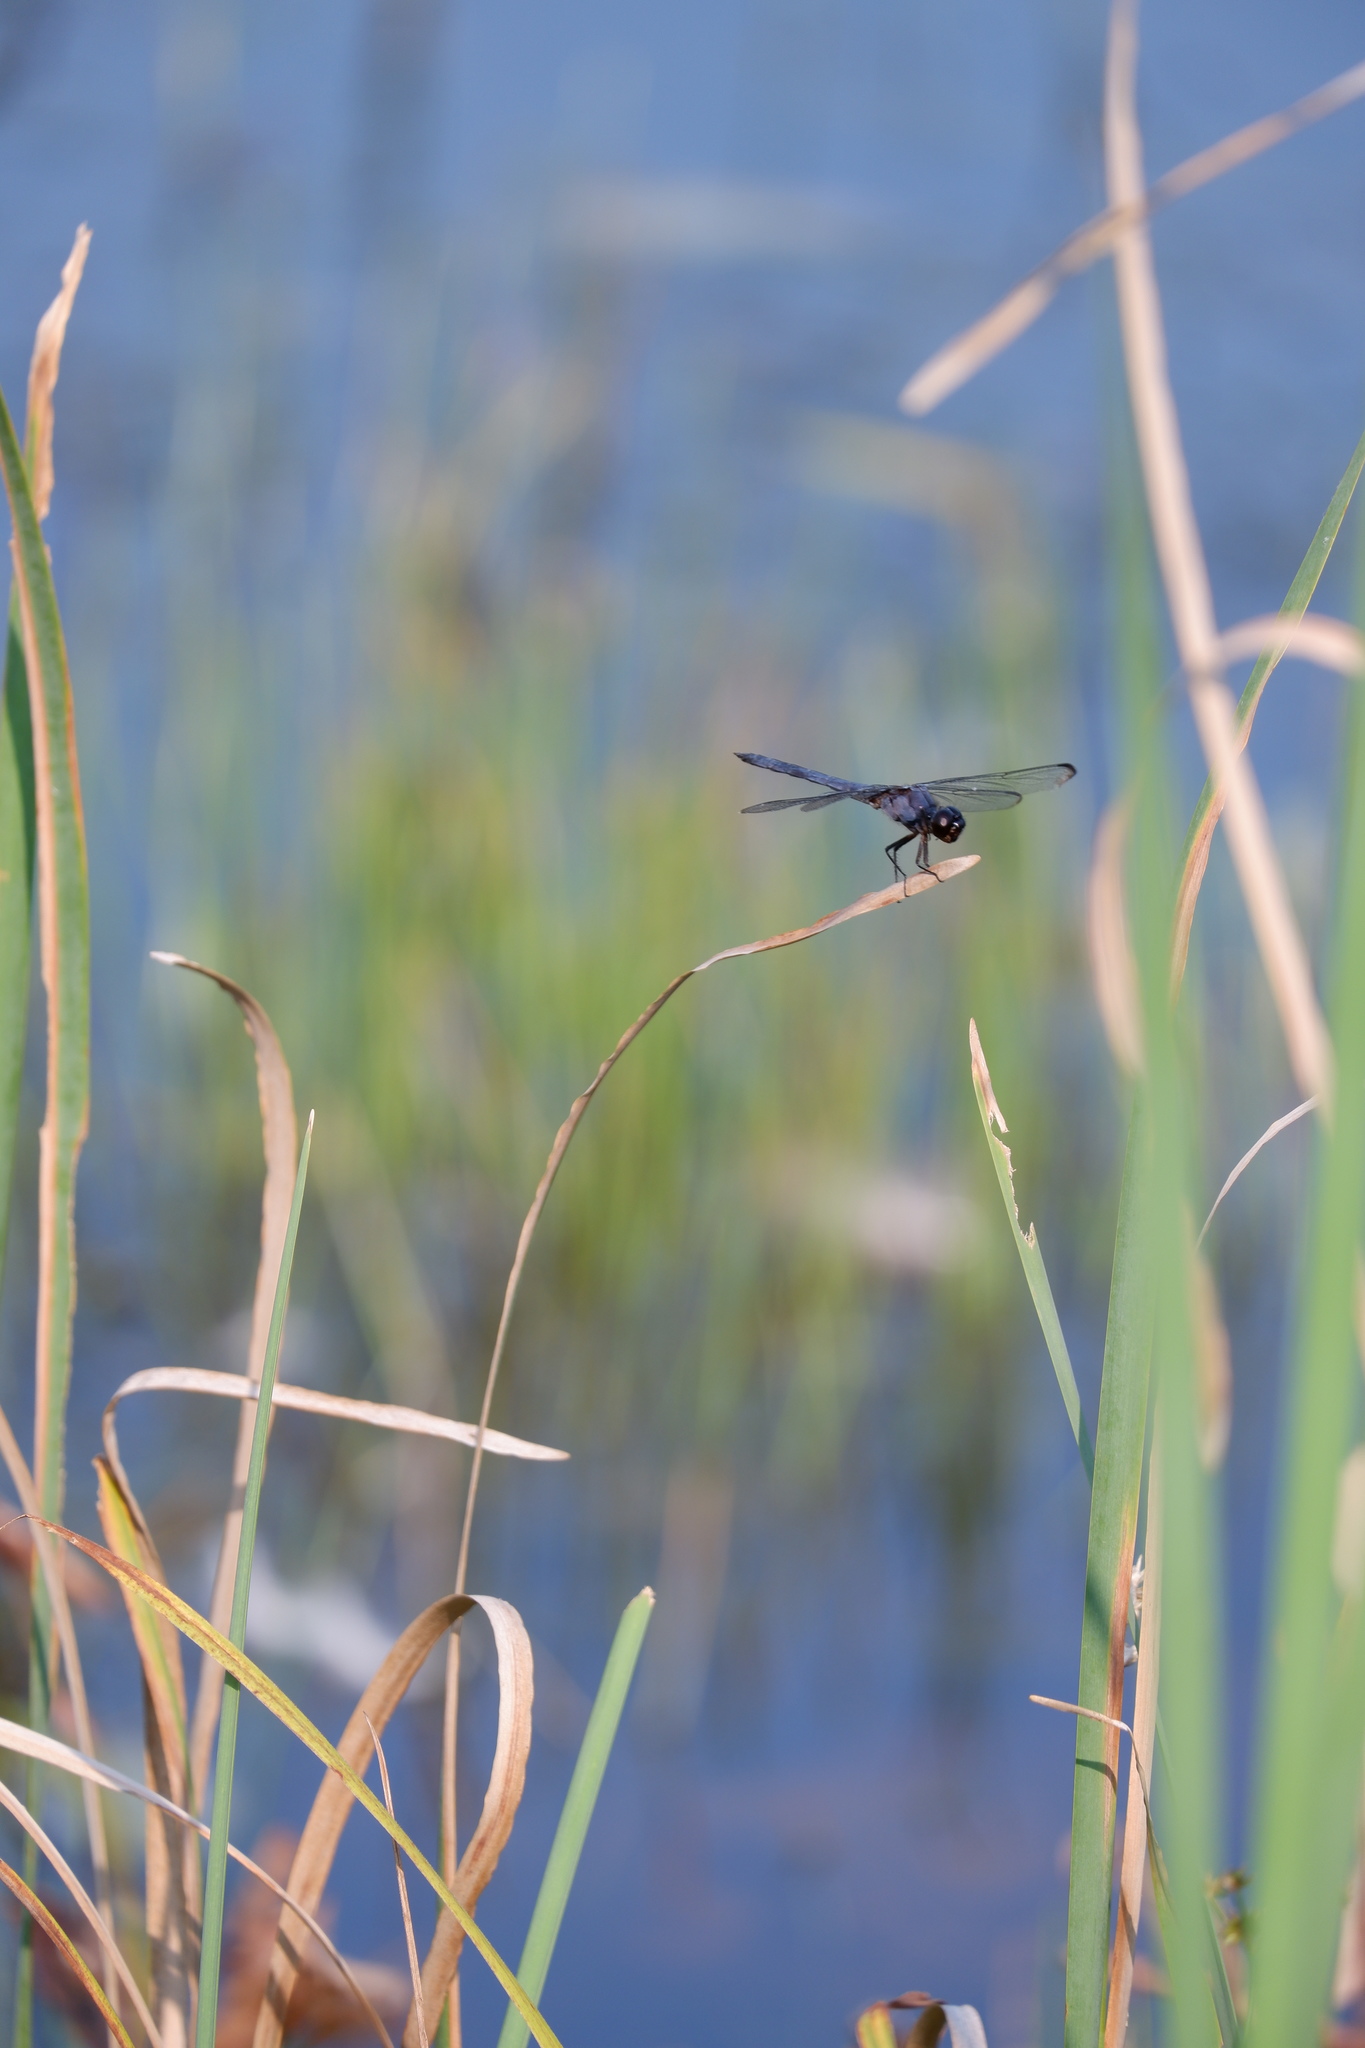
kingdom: Animalia
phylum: Arthropoda
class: Insecta
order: Odonata
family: Libellulidae
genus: Libellula
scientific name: Libellula incesta
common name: Slaty skimmer
